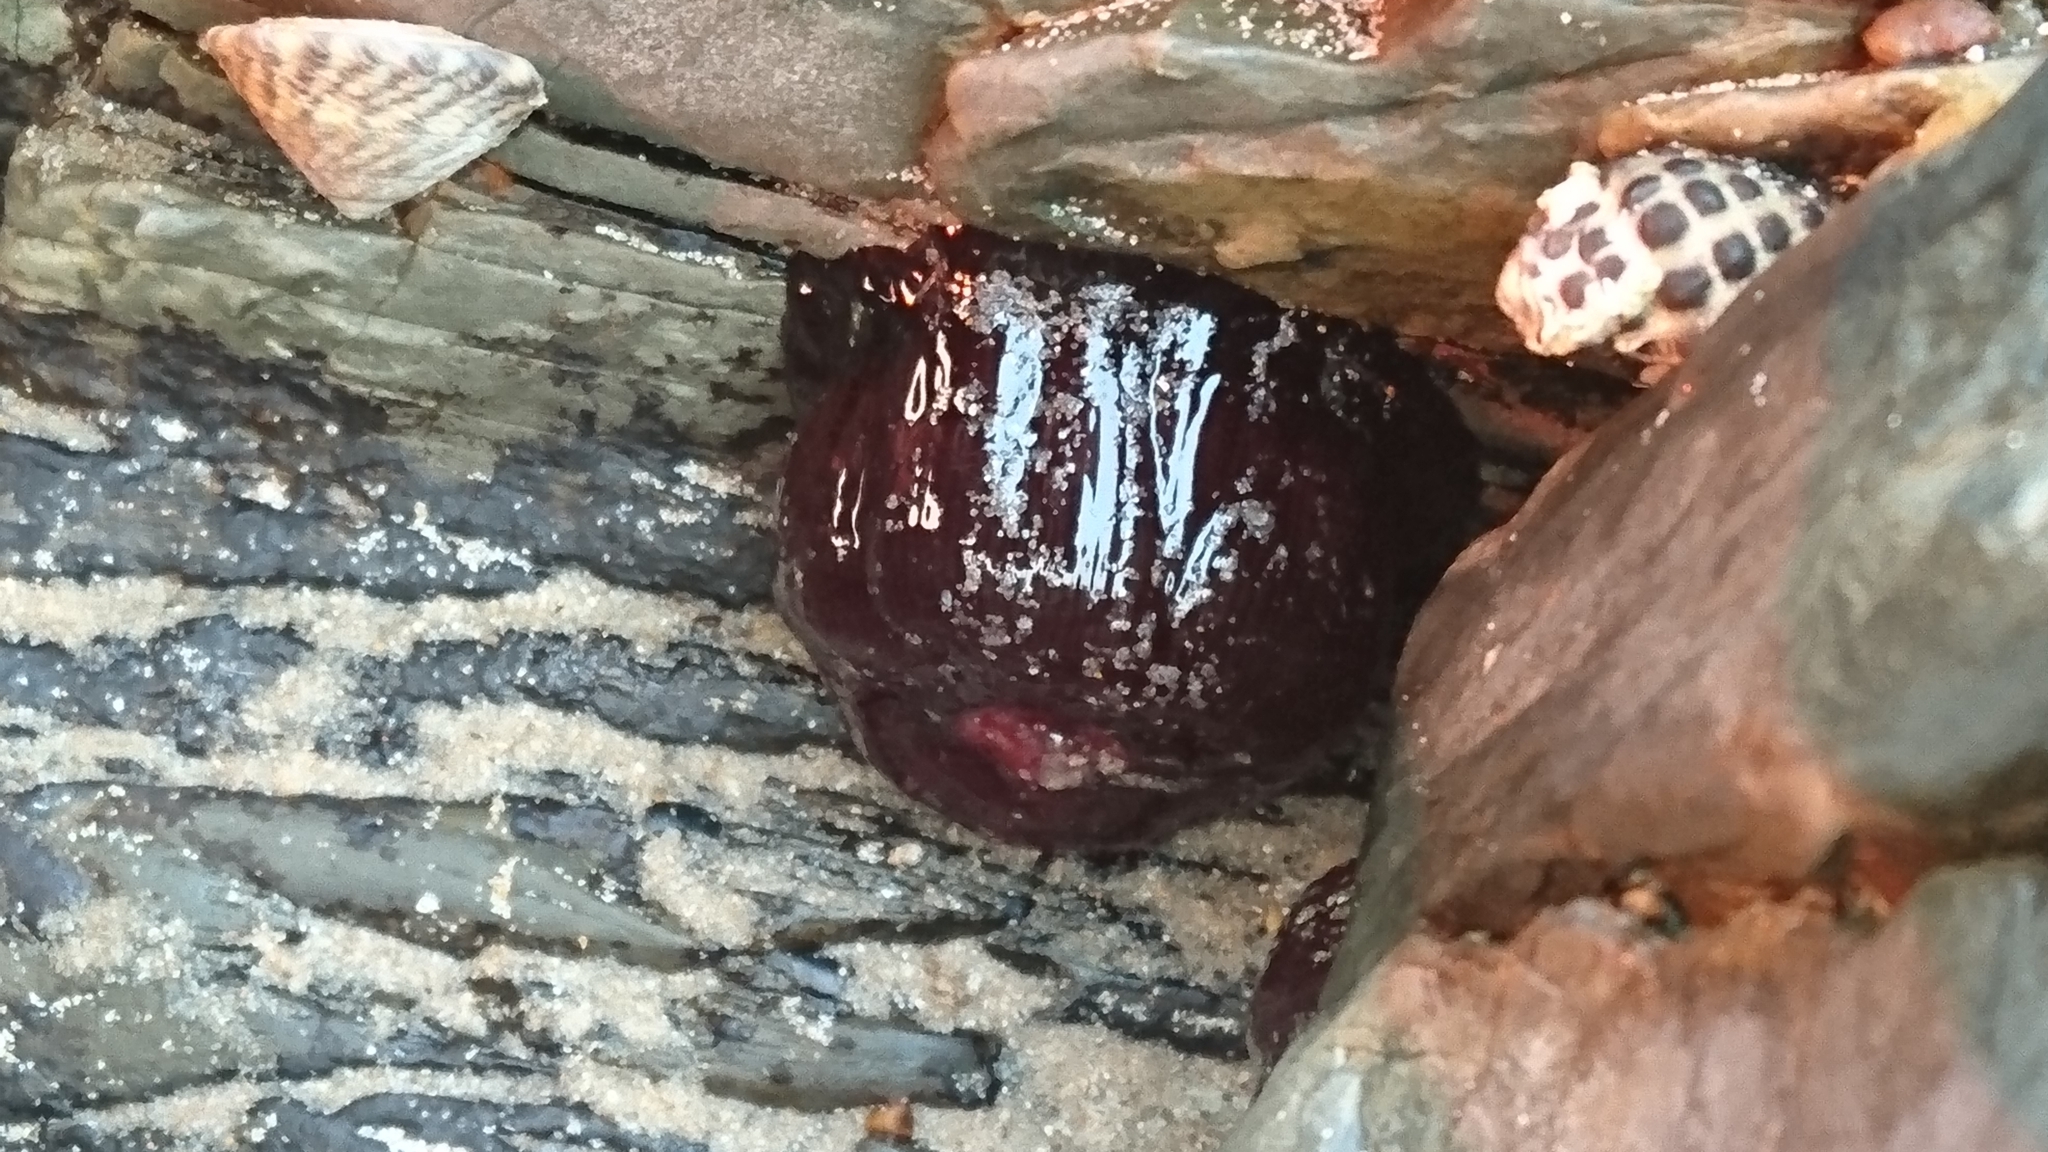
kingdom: Animalia
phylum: Cnidaria
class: Anthozoa
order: Actiniaria
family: Actiniidae
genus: Actinia
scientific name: Actinia tenebrosa
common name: Waratah anemone
